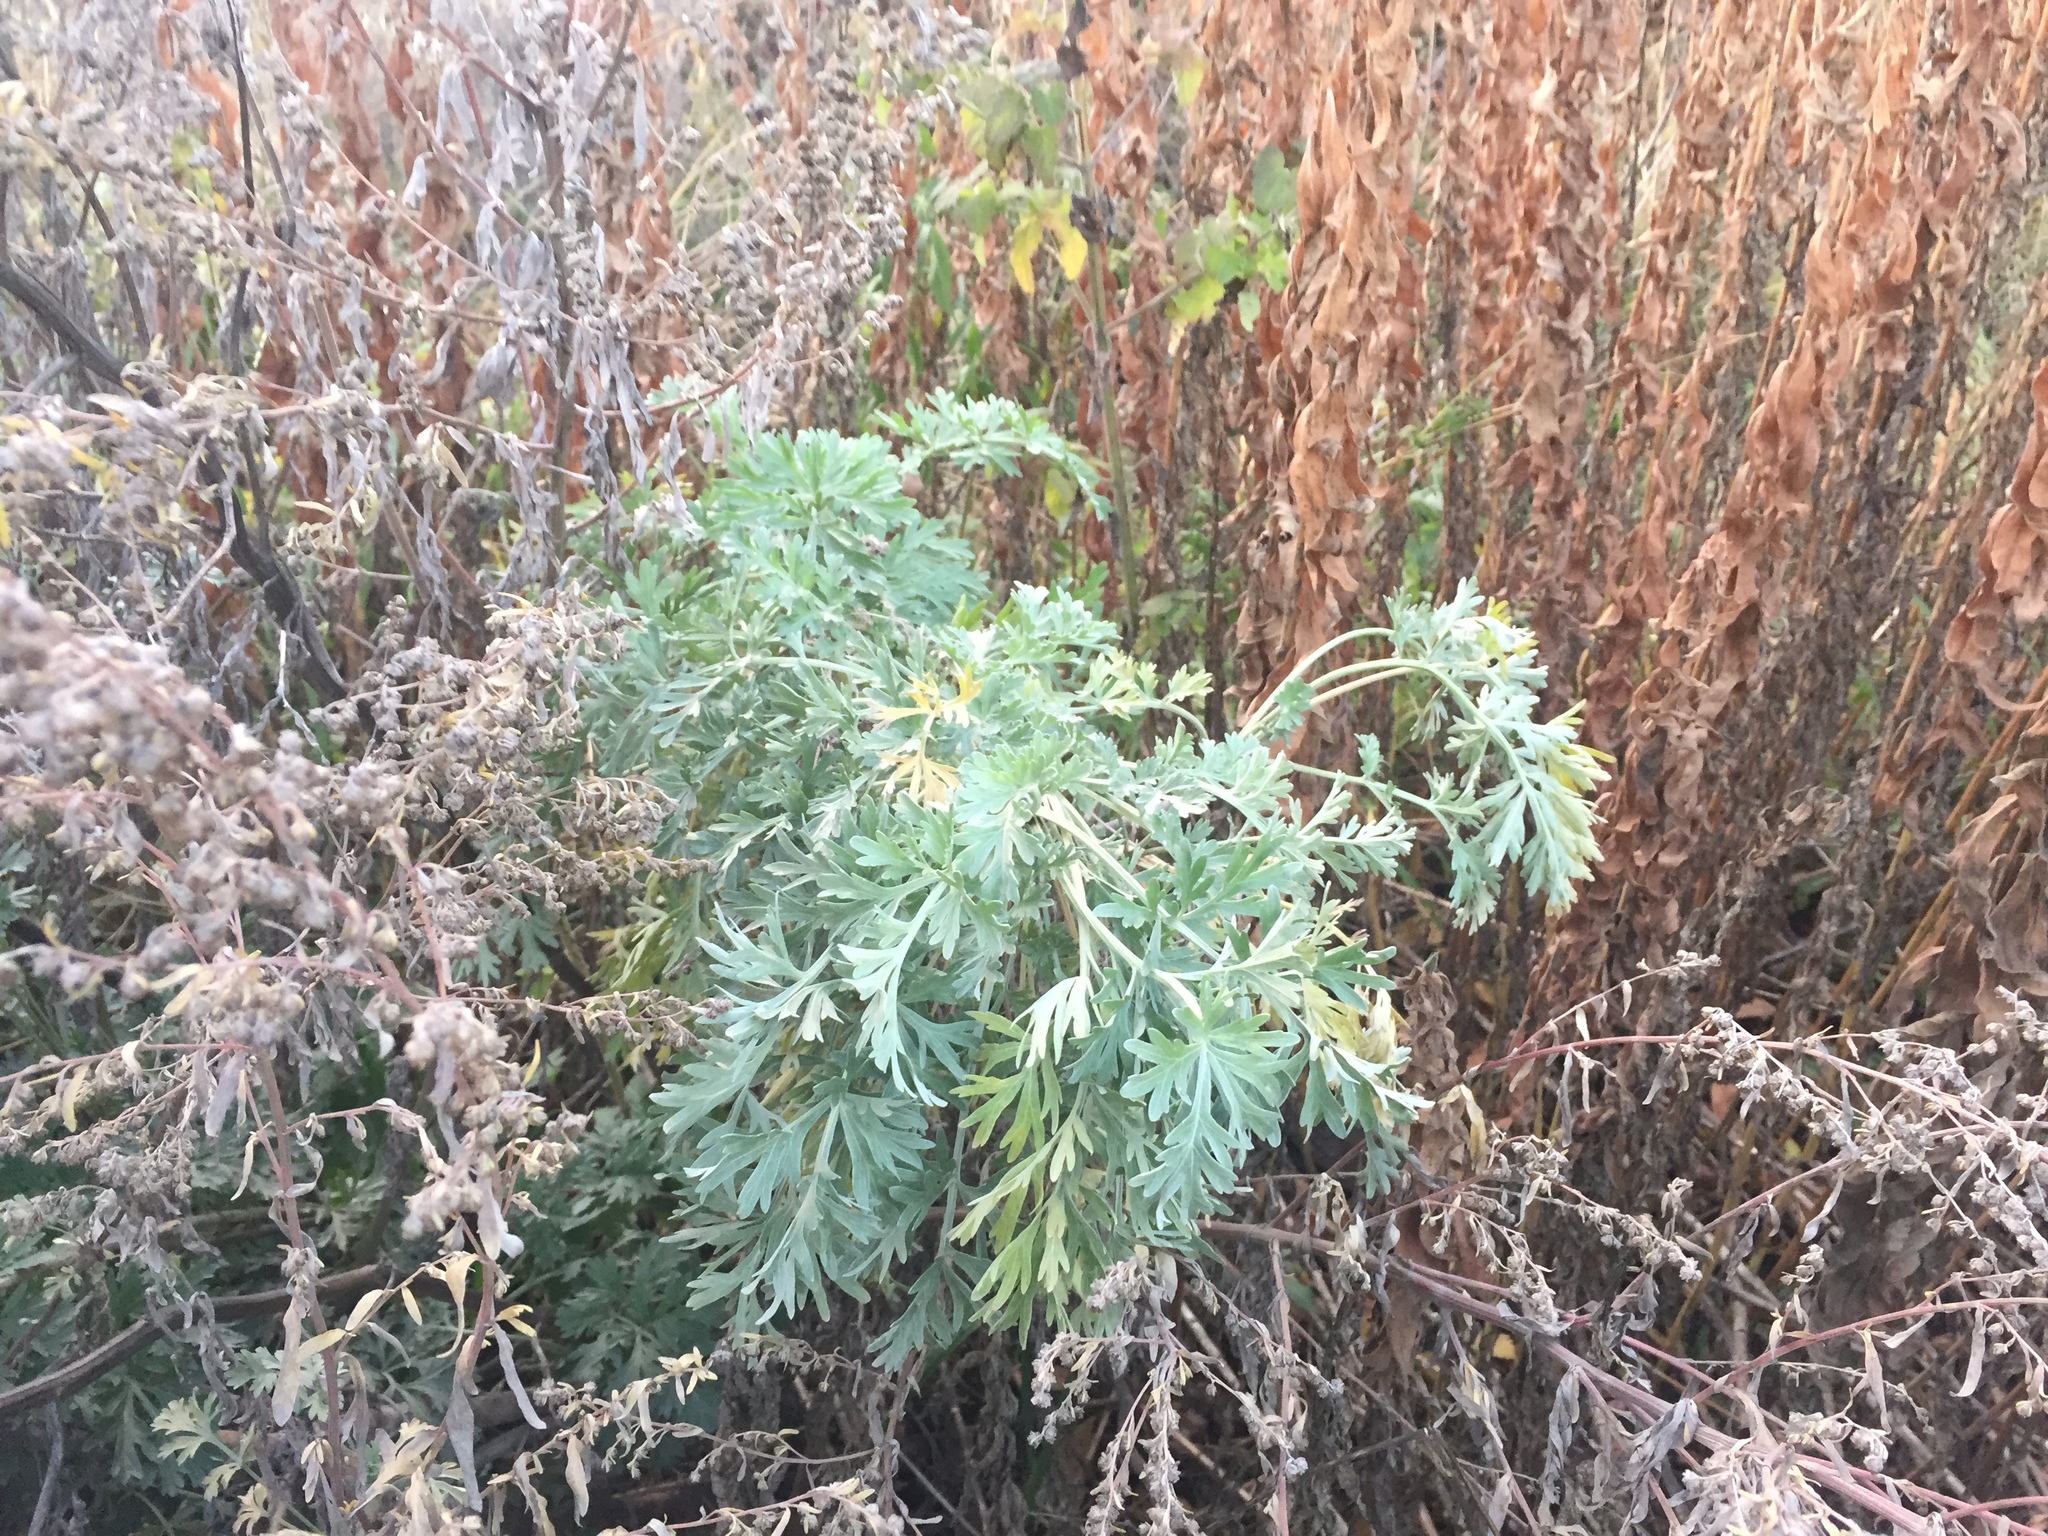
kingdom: Plantae
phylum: Tracheophyta
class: Magnoliopsida
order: Asterales
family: Asteraceae
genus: Artemisia
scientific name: Artemisia absinthium
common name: Wormwood
